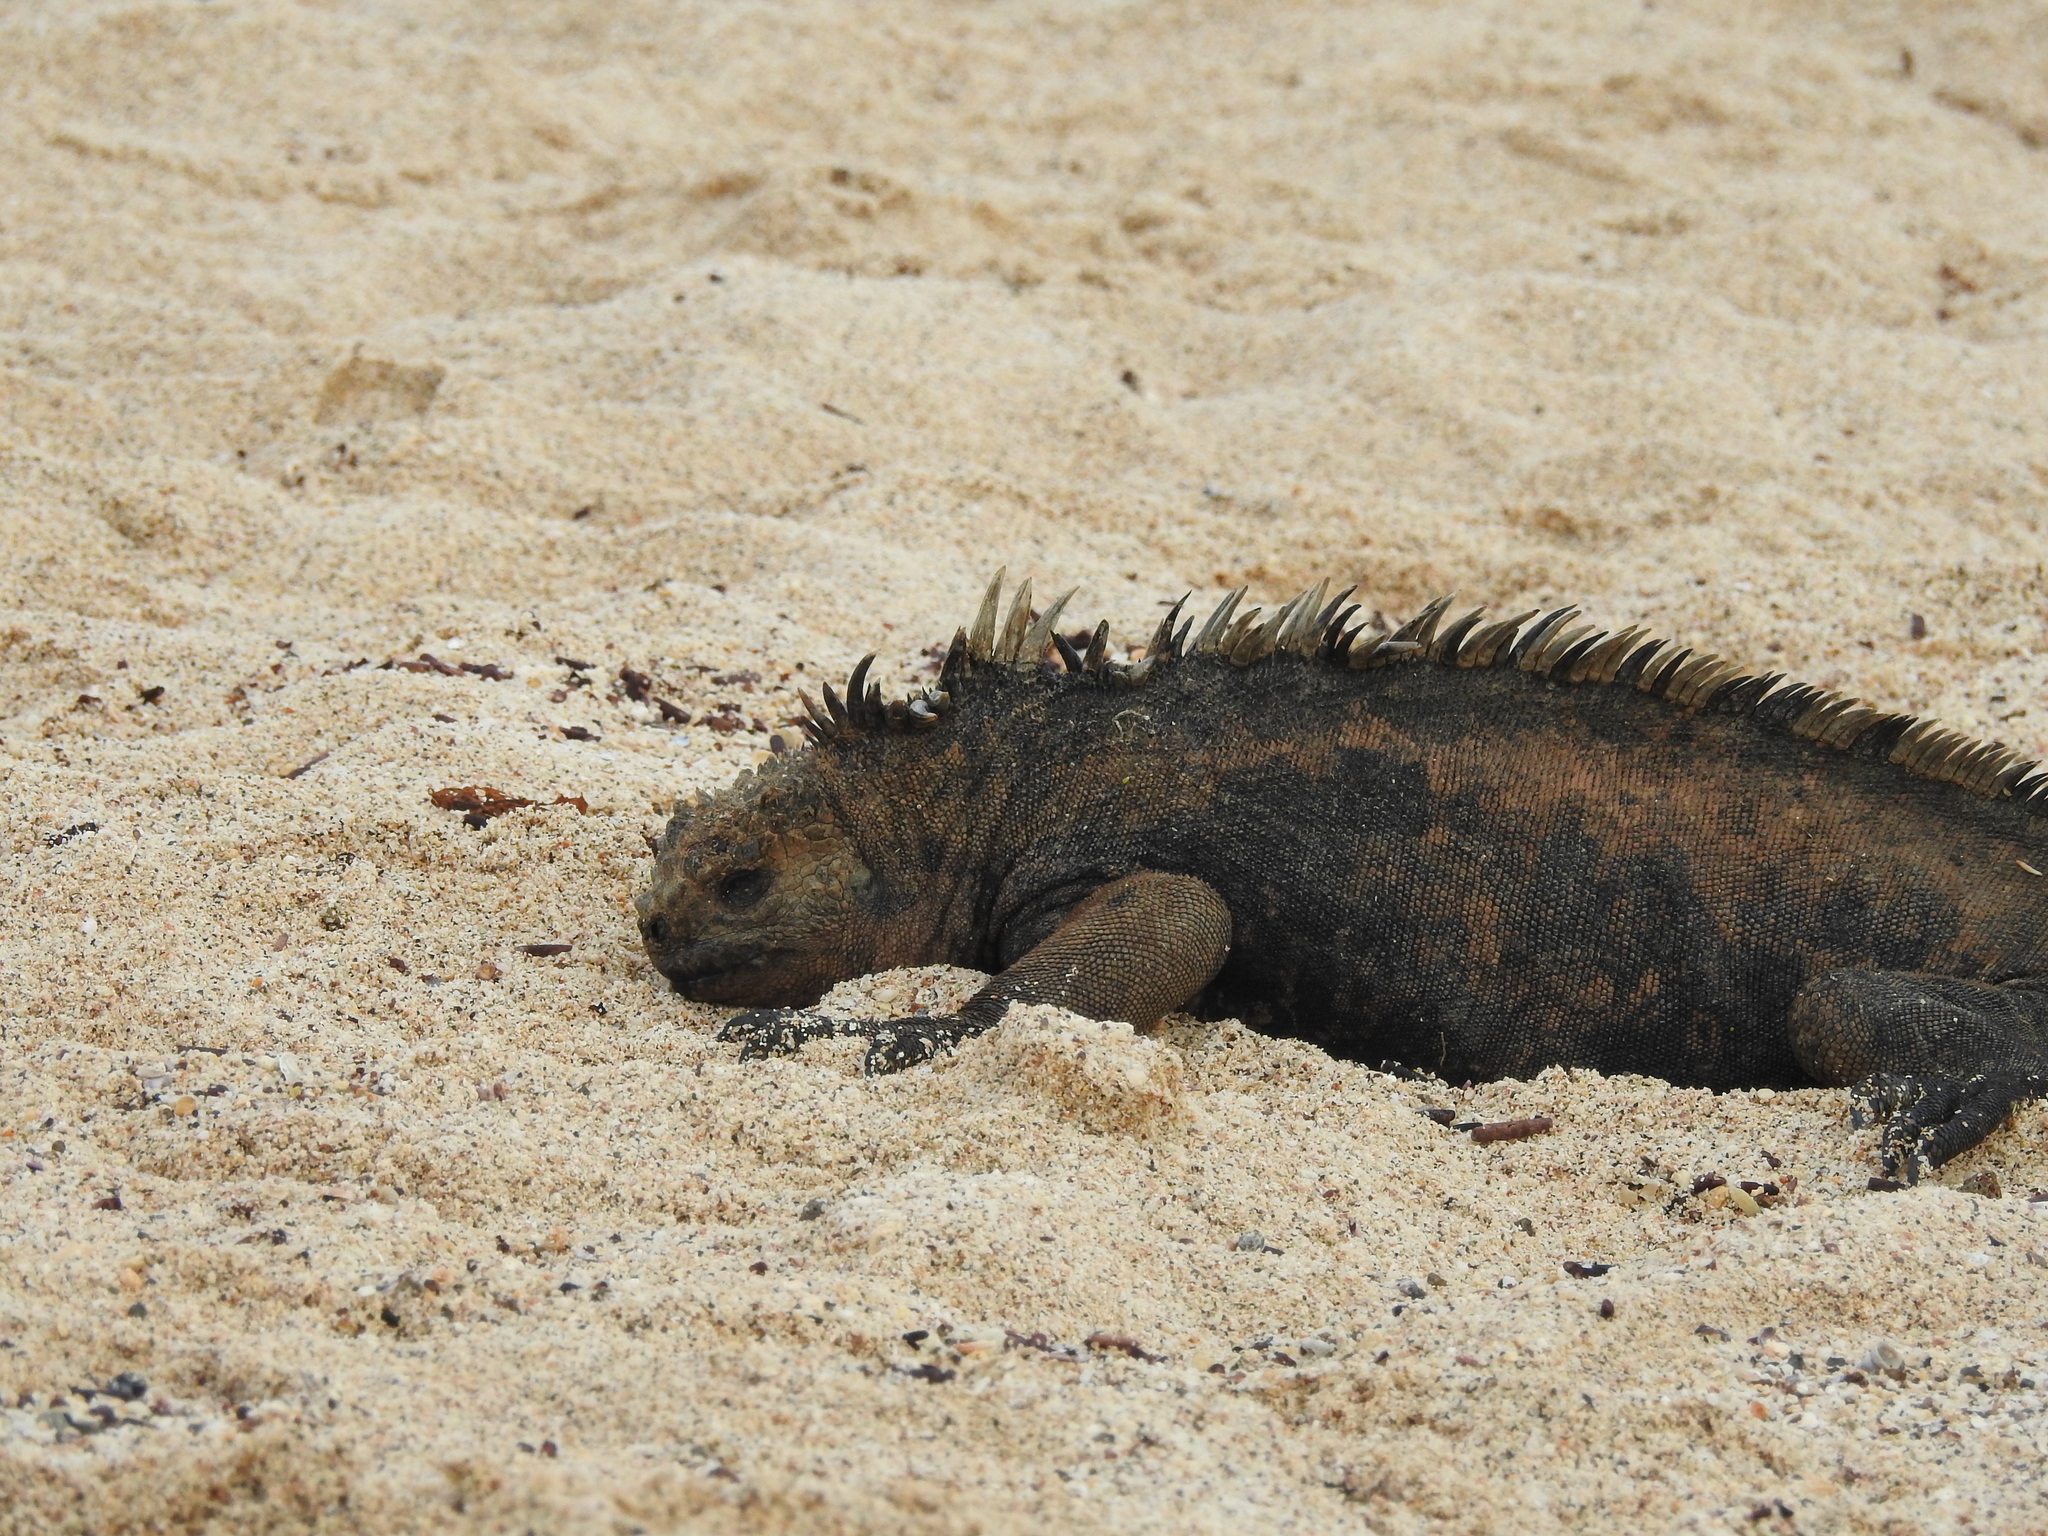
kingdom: Animalia
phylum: Chordata
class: Squamata
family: Iguanidae
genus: Amblyrhynchus
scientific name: Amblyrhynchus cristatus
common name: Marine iguana
